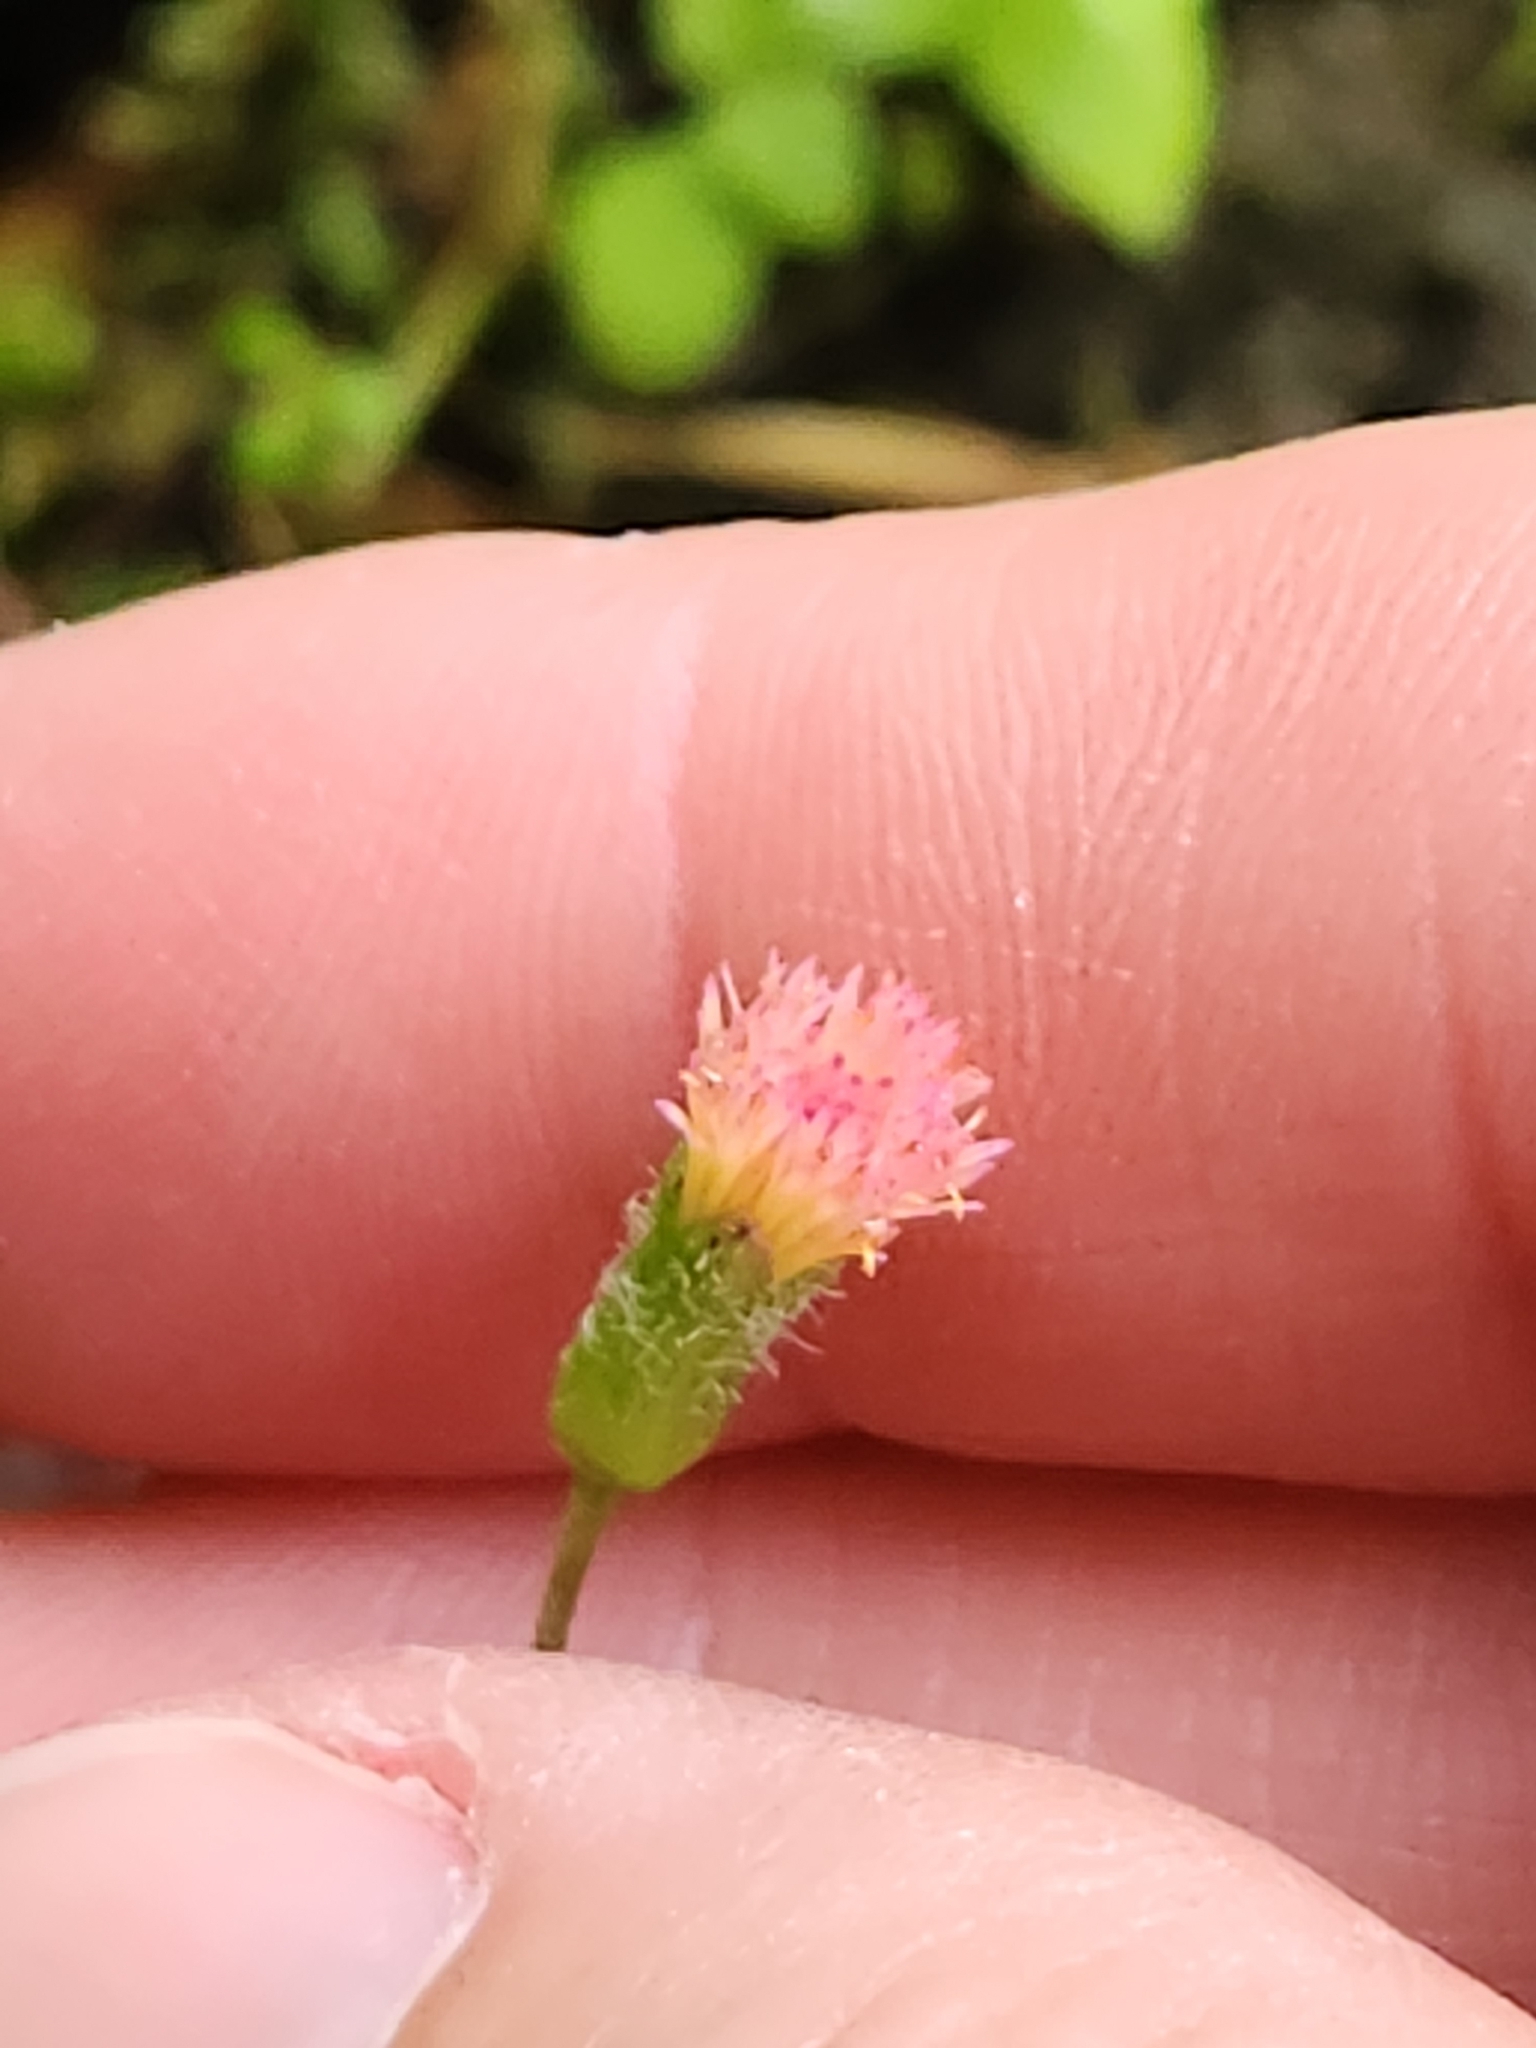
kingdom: Plantae
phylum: Tracheophyta
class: Magnoliopsida
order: Asterales
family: Asteraceae
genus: Emilia
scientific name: Emilia praetermissa
